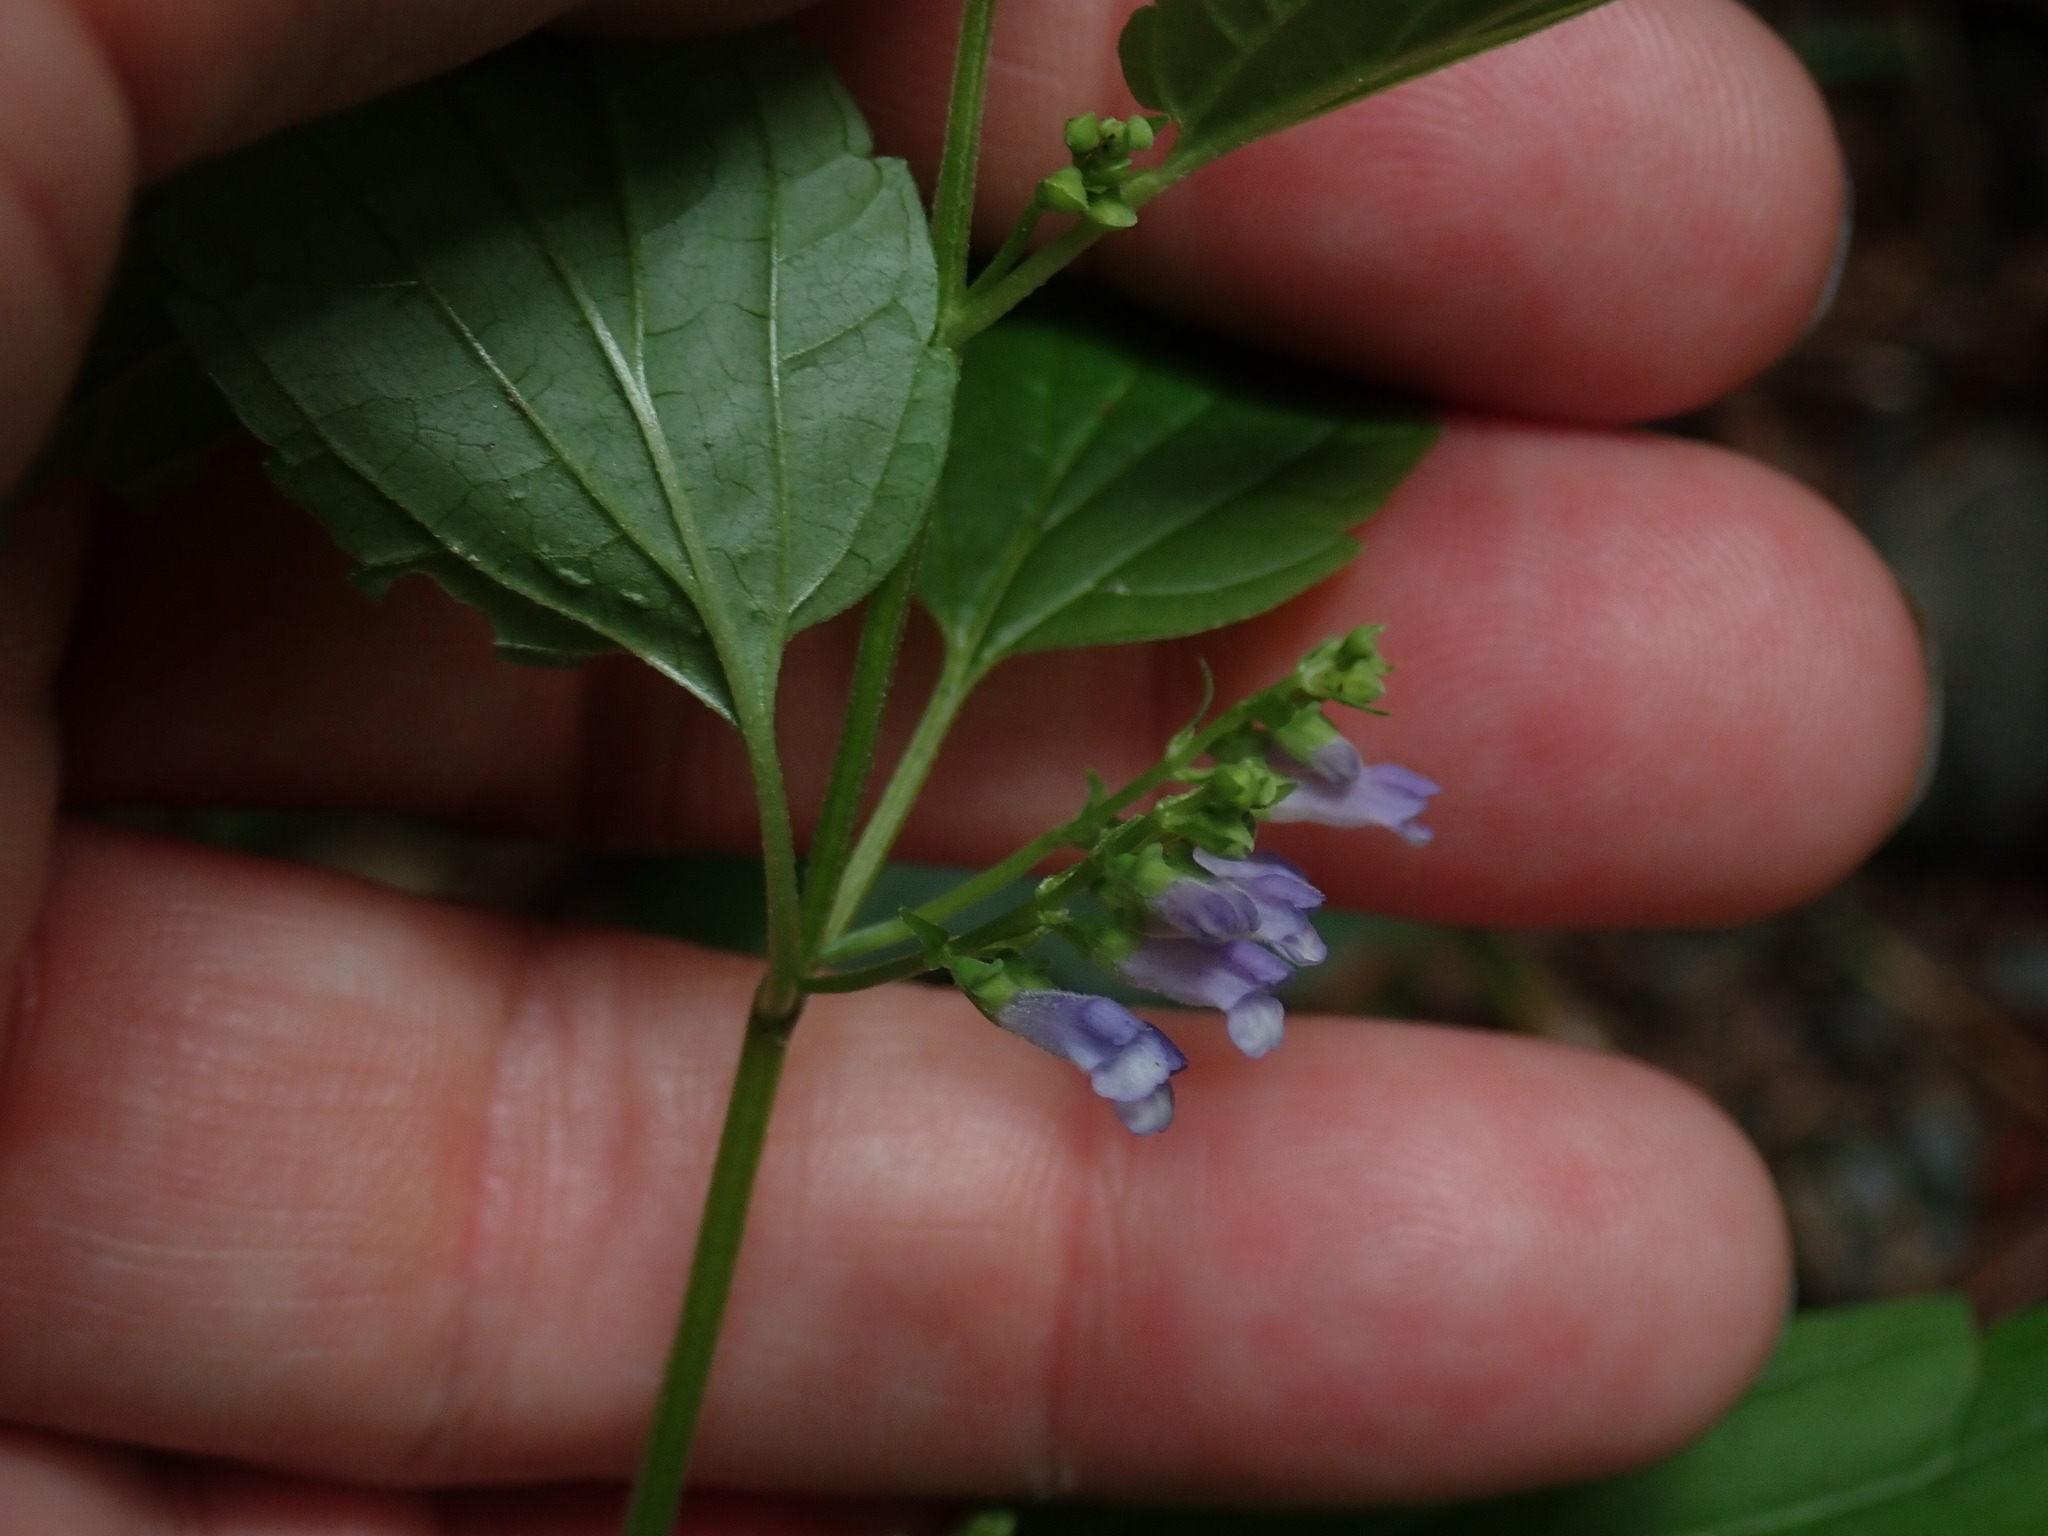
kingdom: Plantae
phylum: Tracheophyta
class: Magnoliopsida
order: Lamiales
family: Lamiaceae
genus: Scutellaria
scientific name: Scutellaria lateriflora
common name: Blue skullcap
